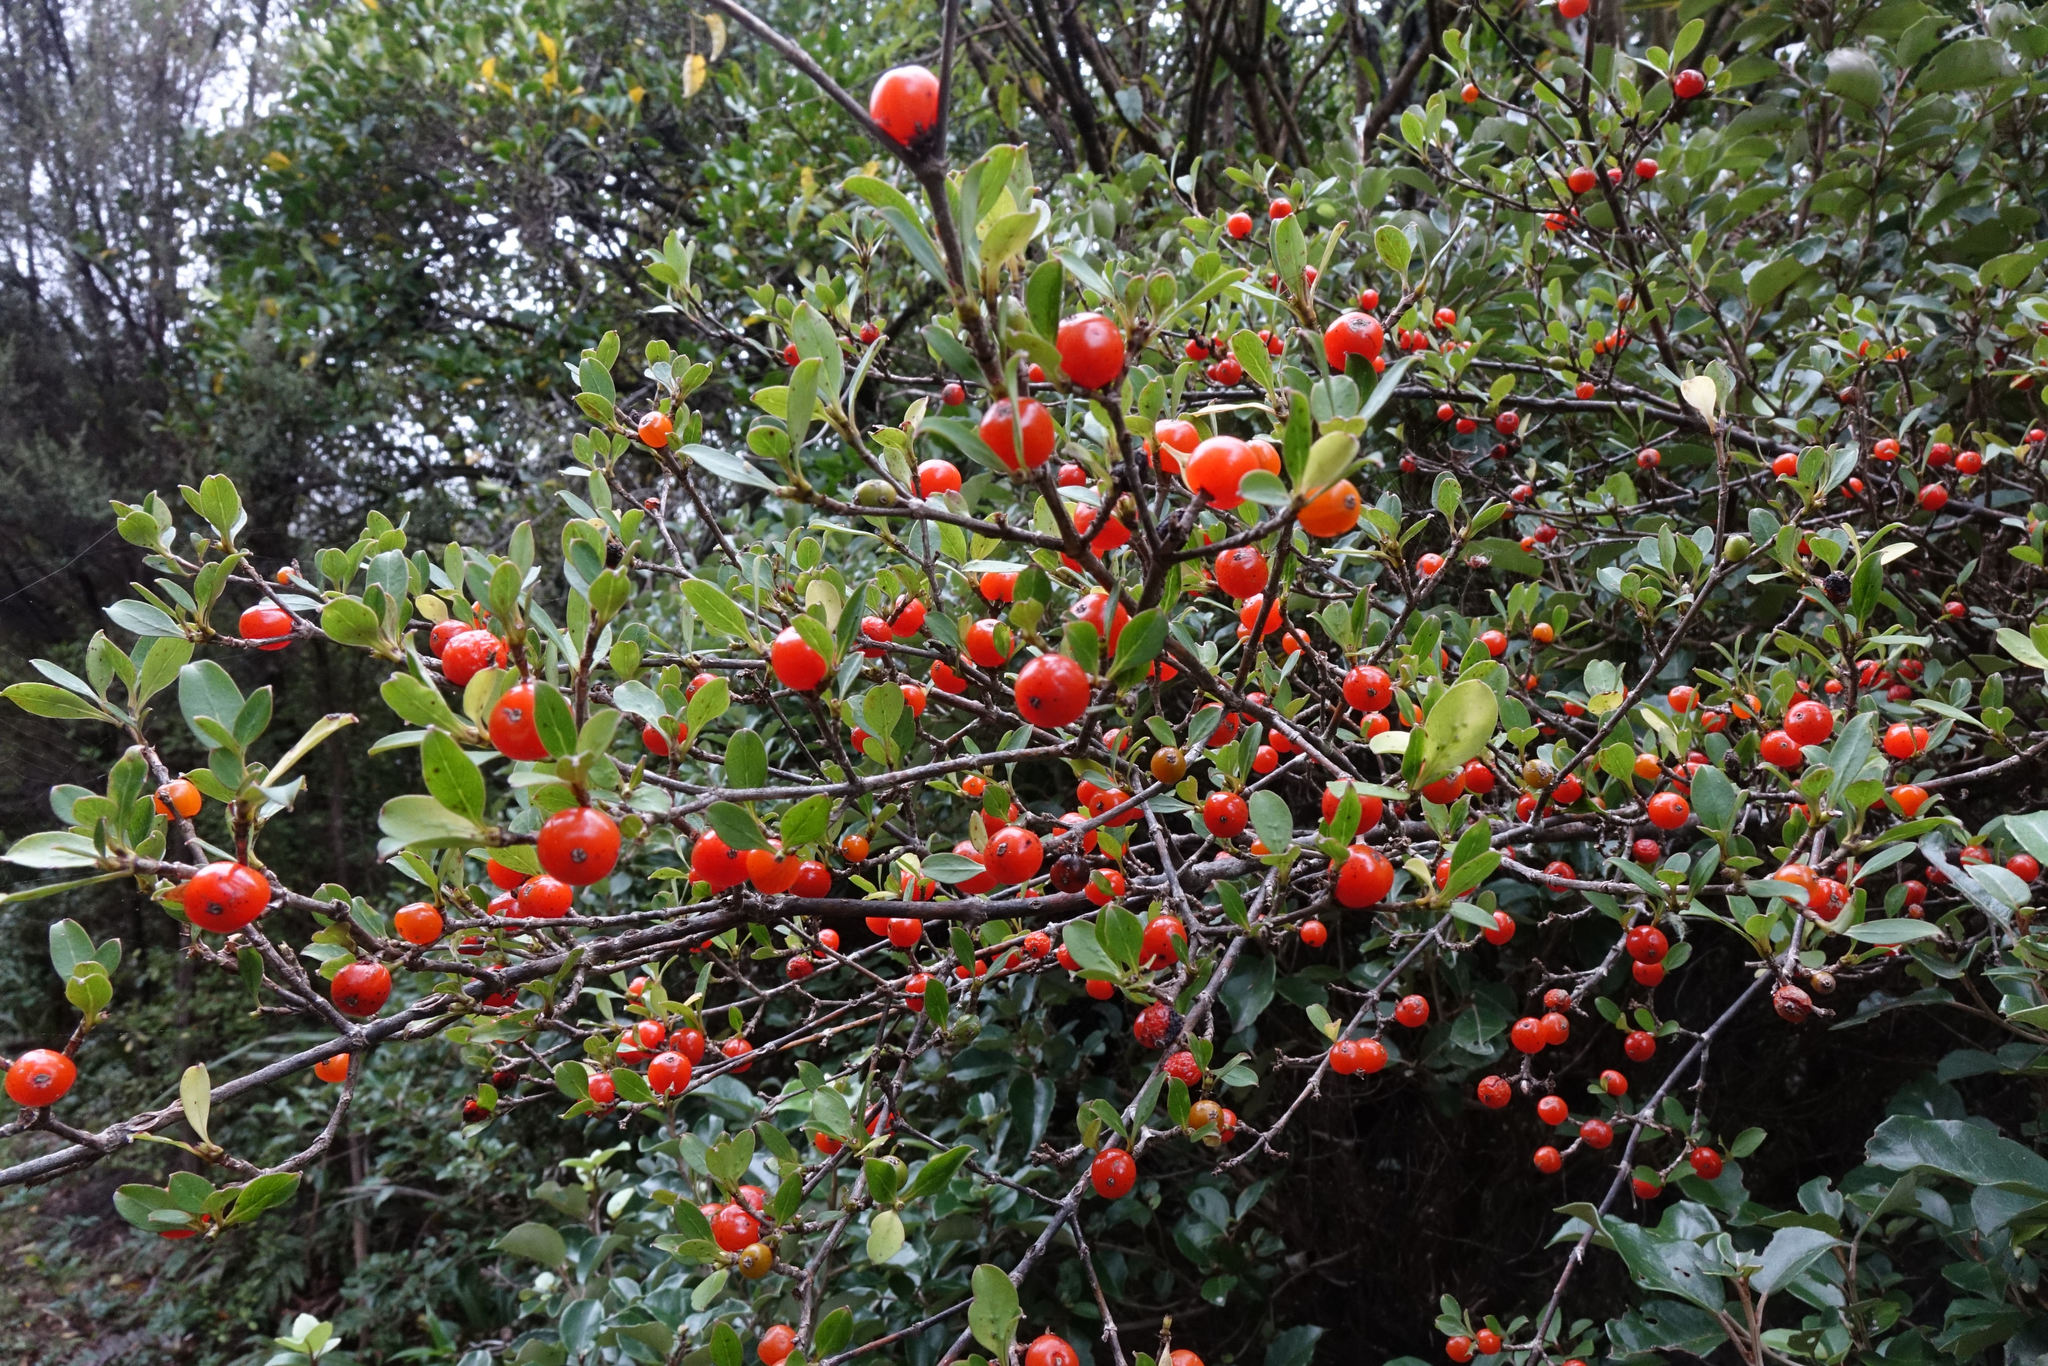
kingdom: Plantae
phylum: Tracheophyta
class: Magnoliopsida
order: Gentianales
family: Rubiaceae
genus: Coprosma
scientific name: Coprosma foetidissima
